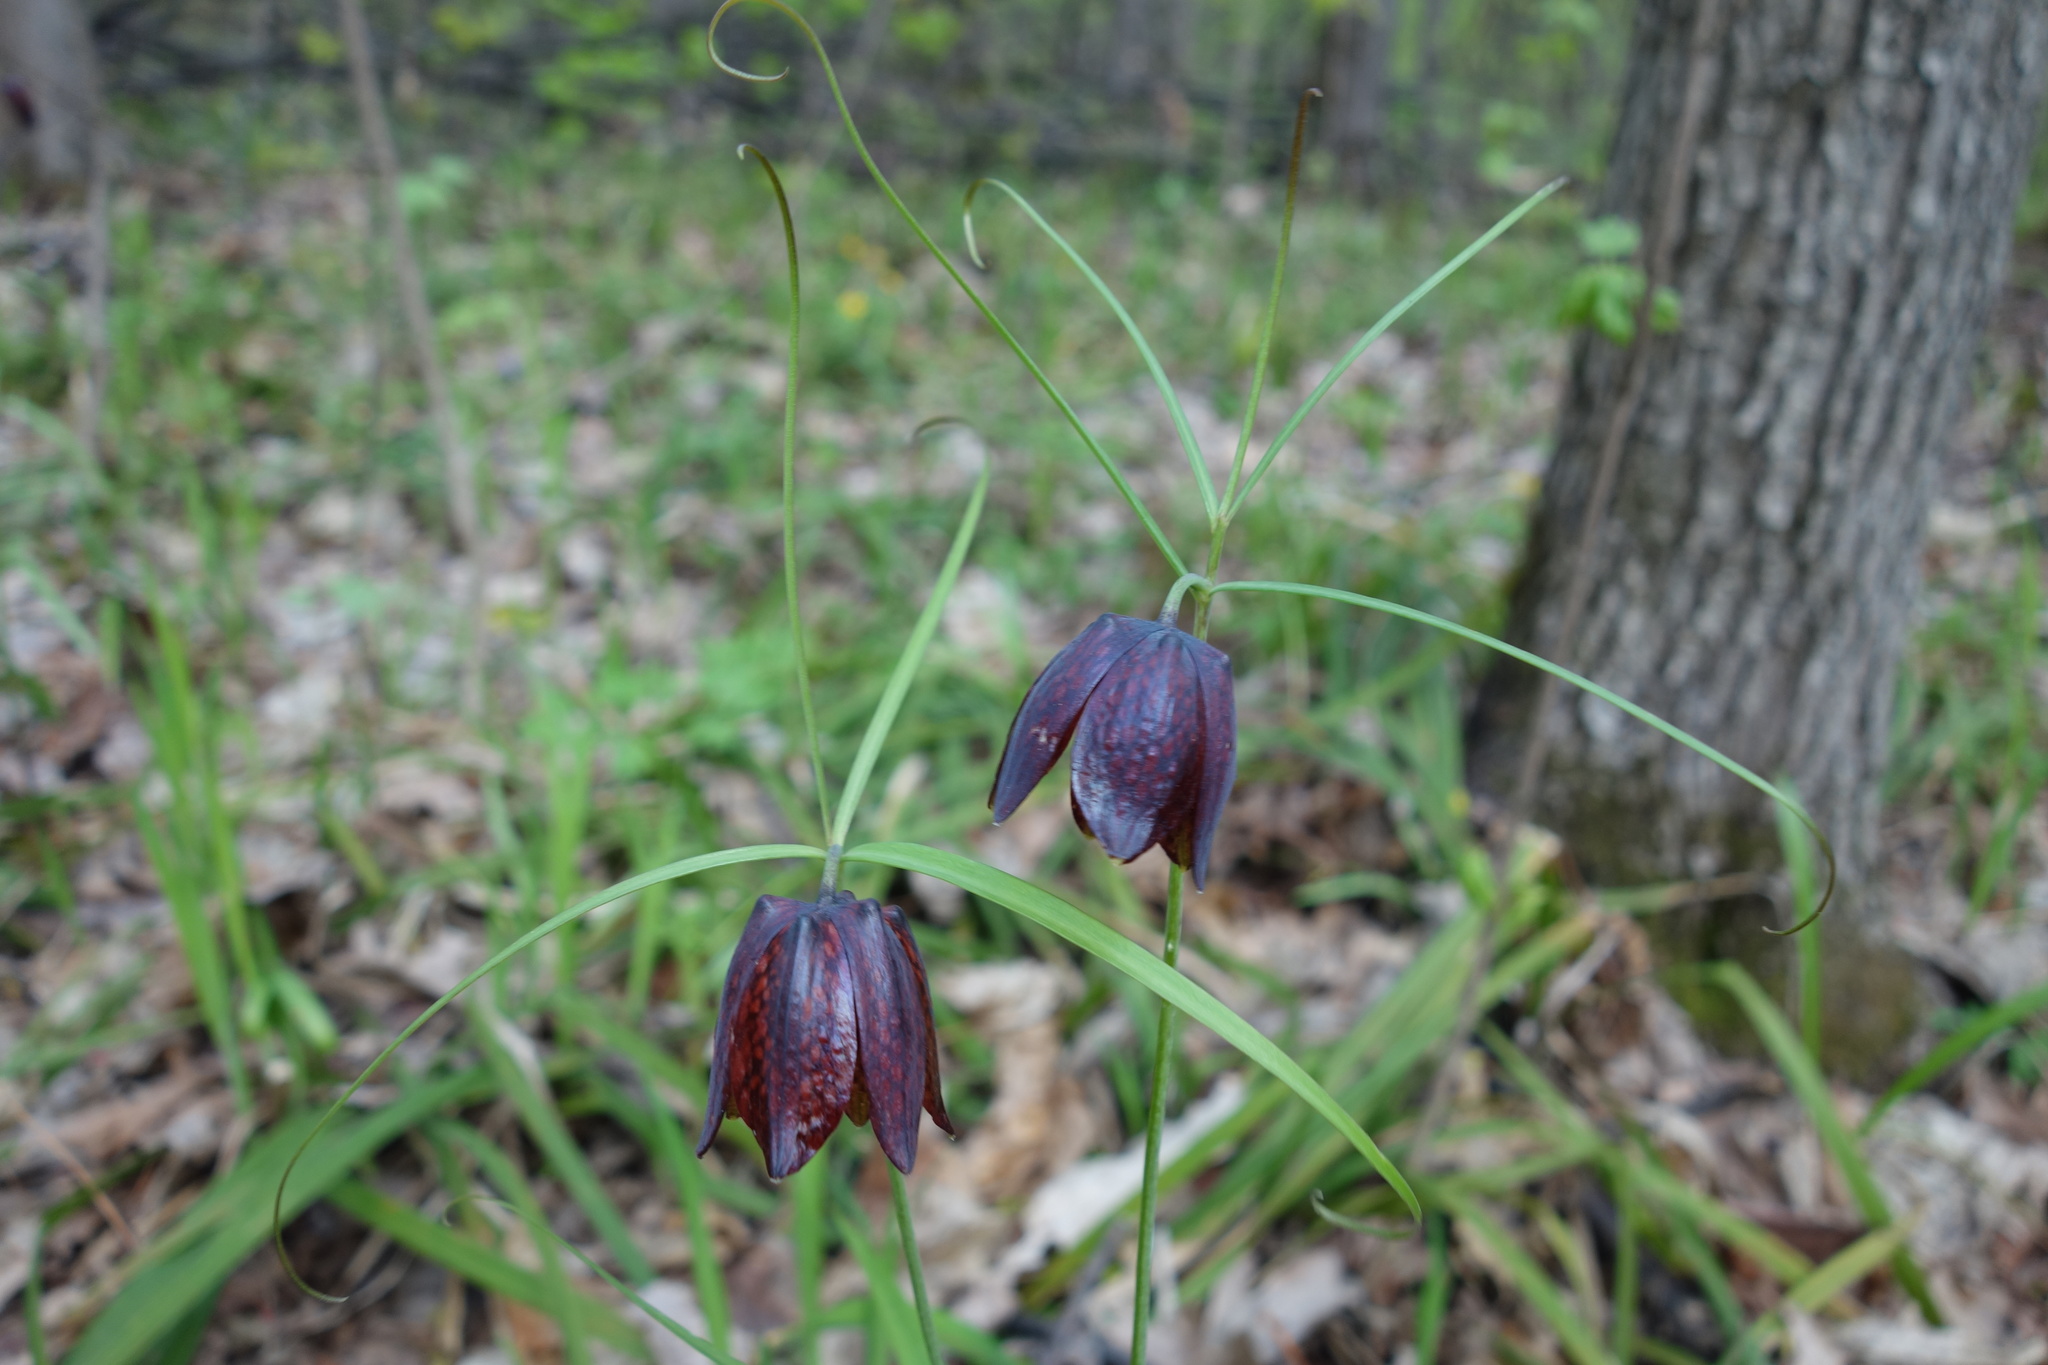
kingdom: Plantae
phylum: Tracheophyta
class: Liliopsida
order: Liliales
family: Liliaceae
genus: Fritillaria
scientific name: Fritillaria ruthenica
